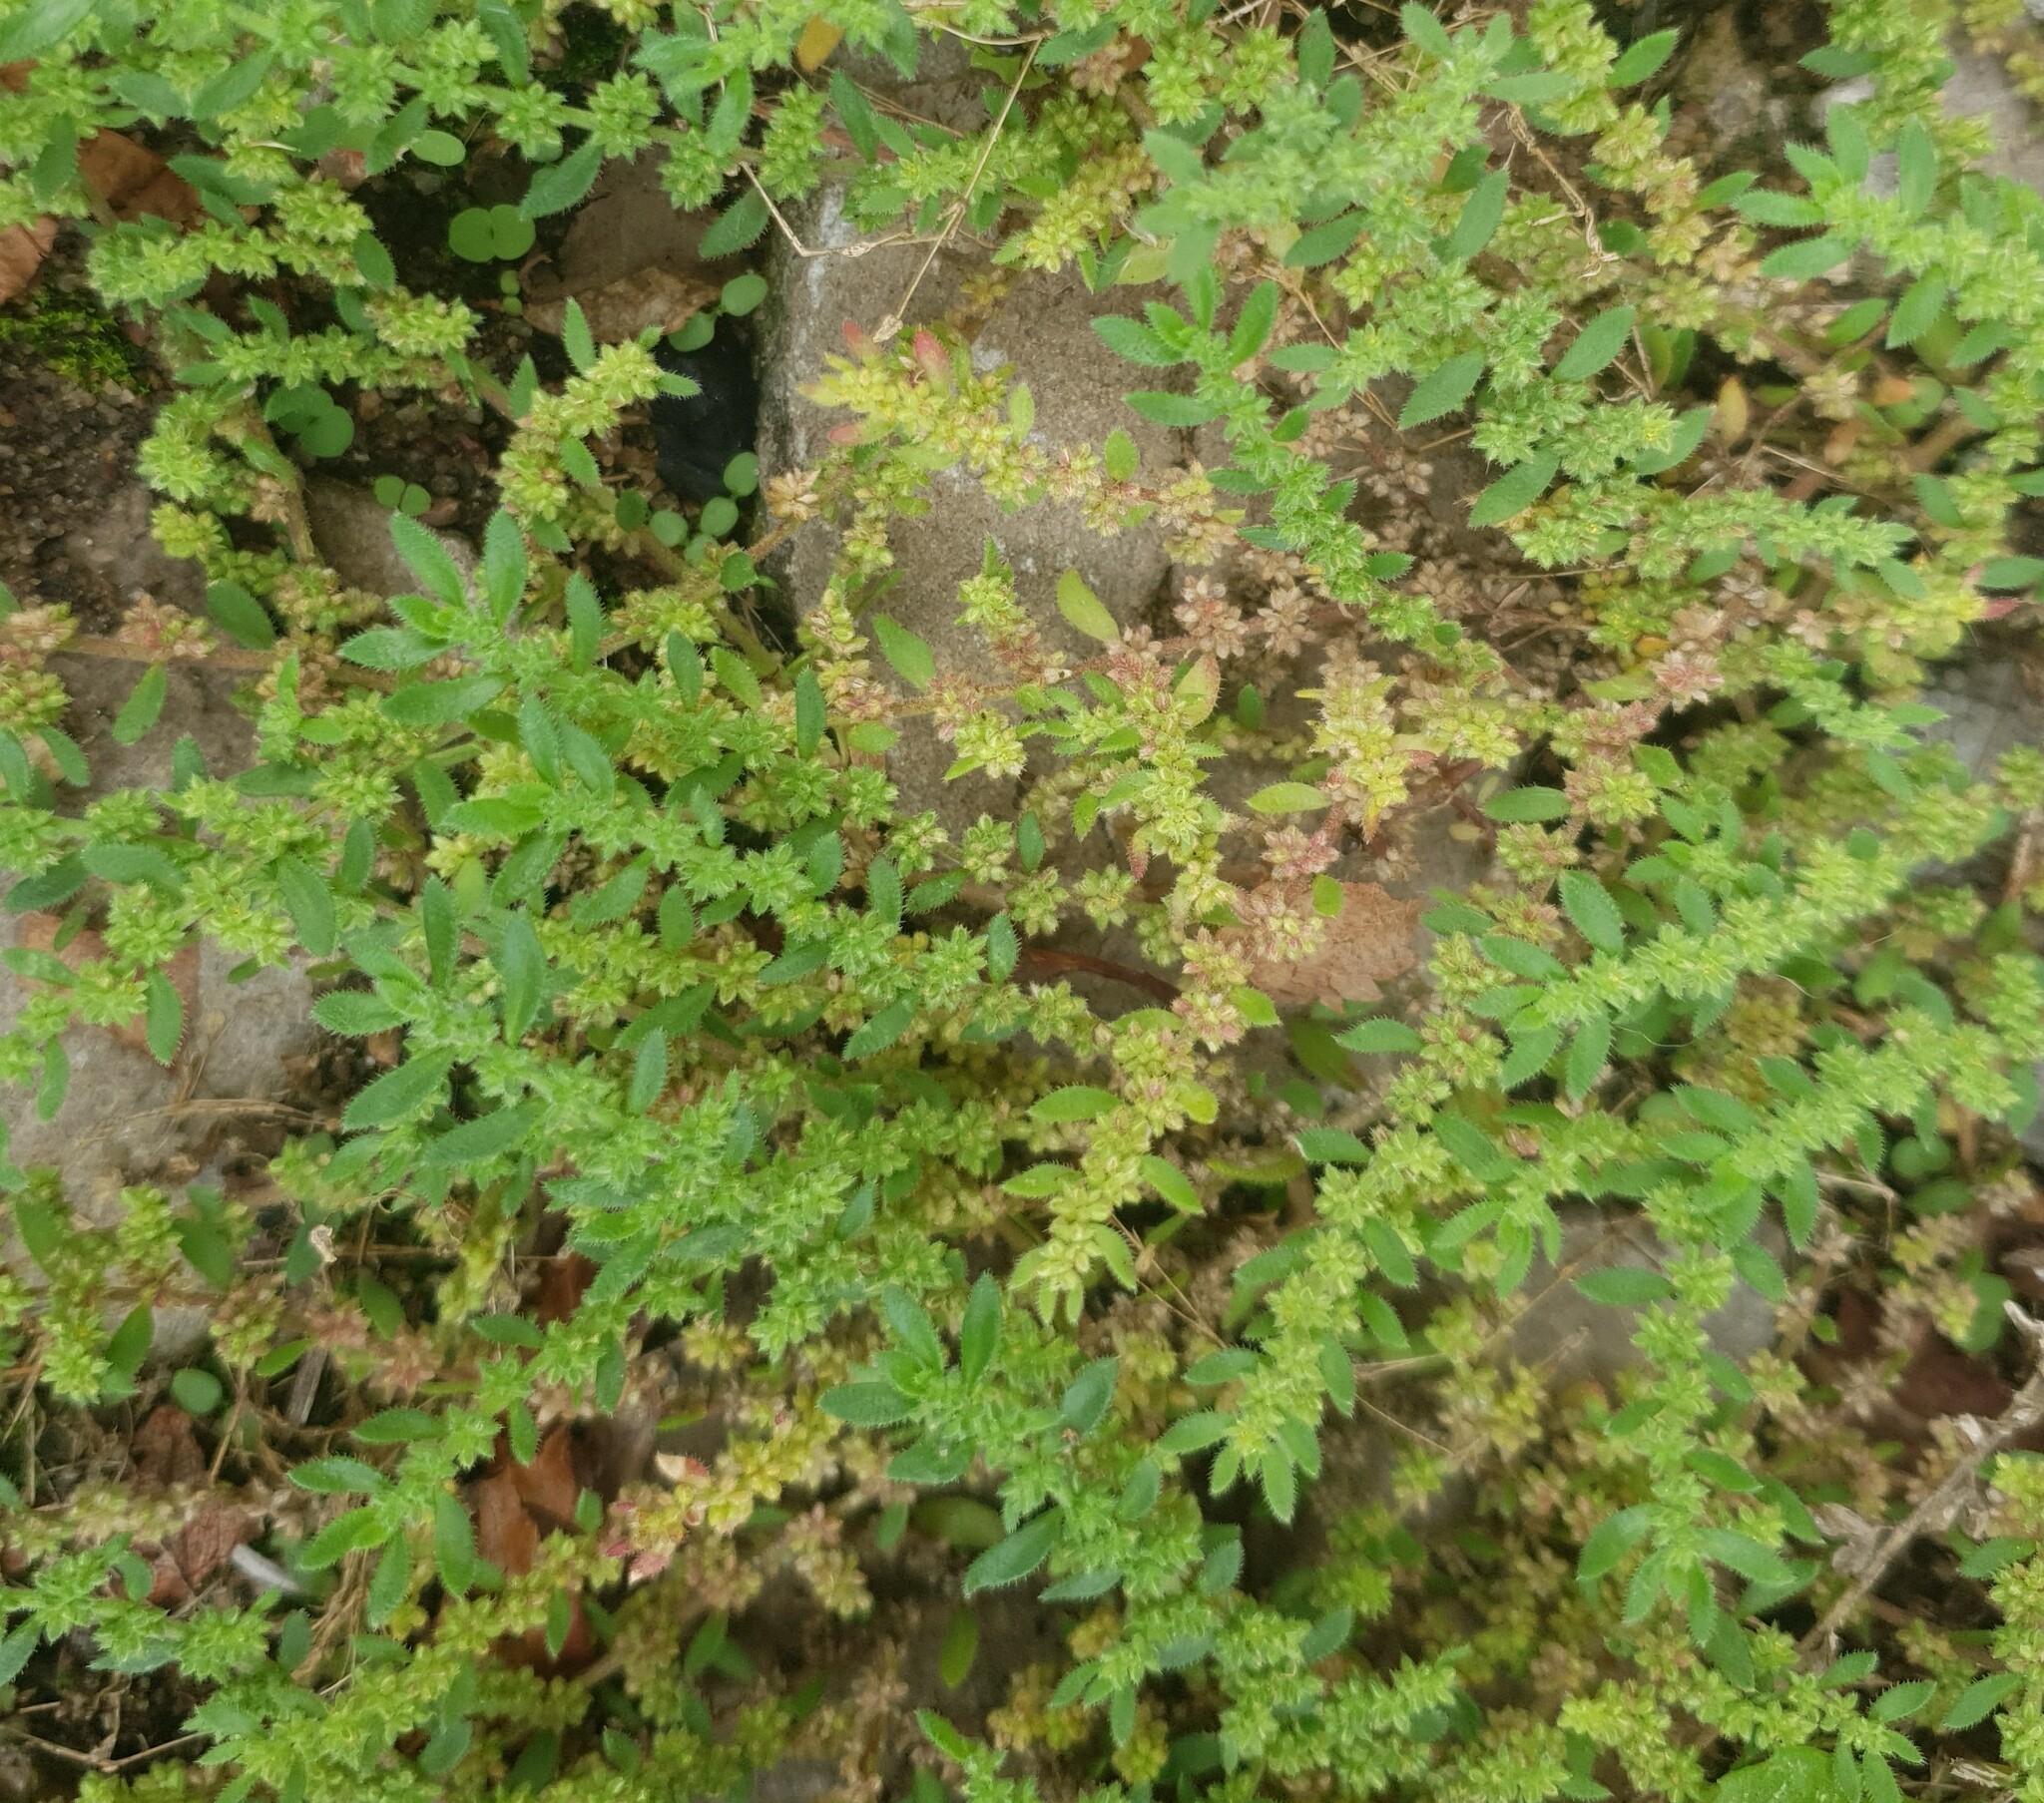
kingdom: Plantae
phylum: Tracheophyta
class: Magnoliopsida
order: Caryophyllales
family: Caryophyllaceae
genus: Herniaria
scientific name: Herniaria hirsuta
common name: Hairy rupturewort
